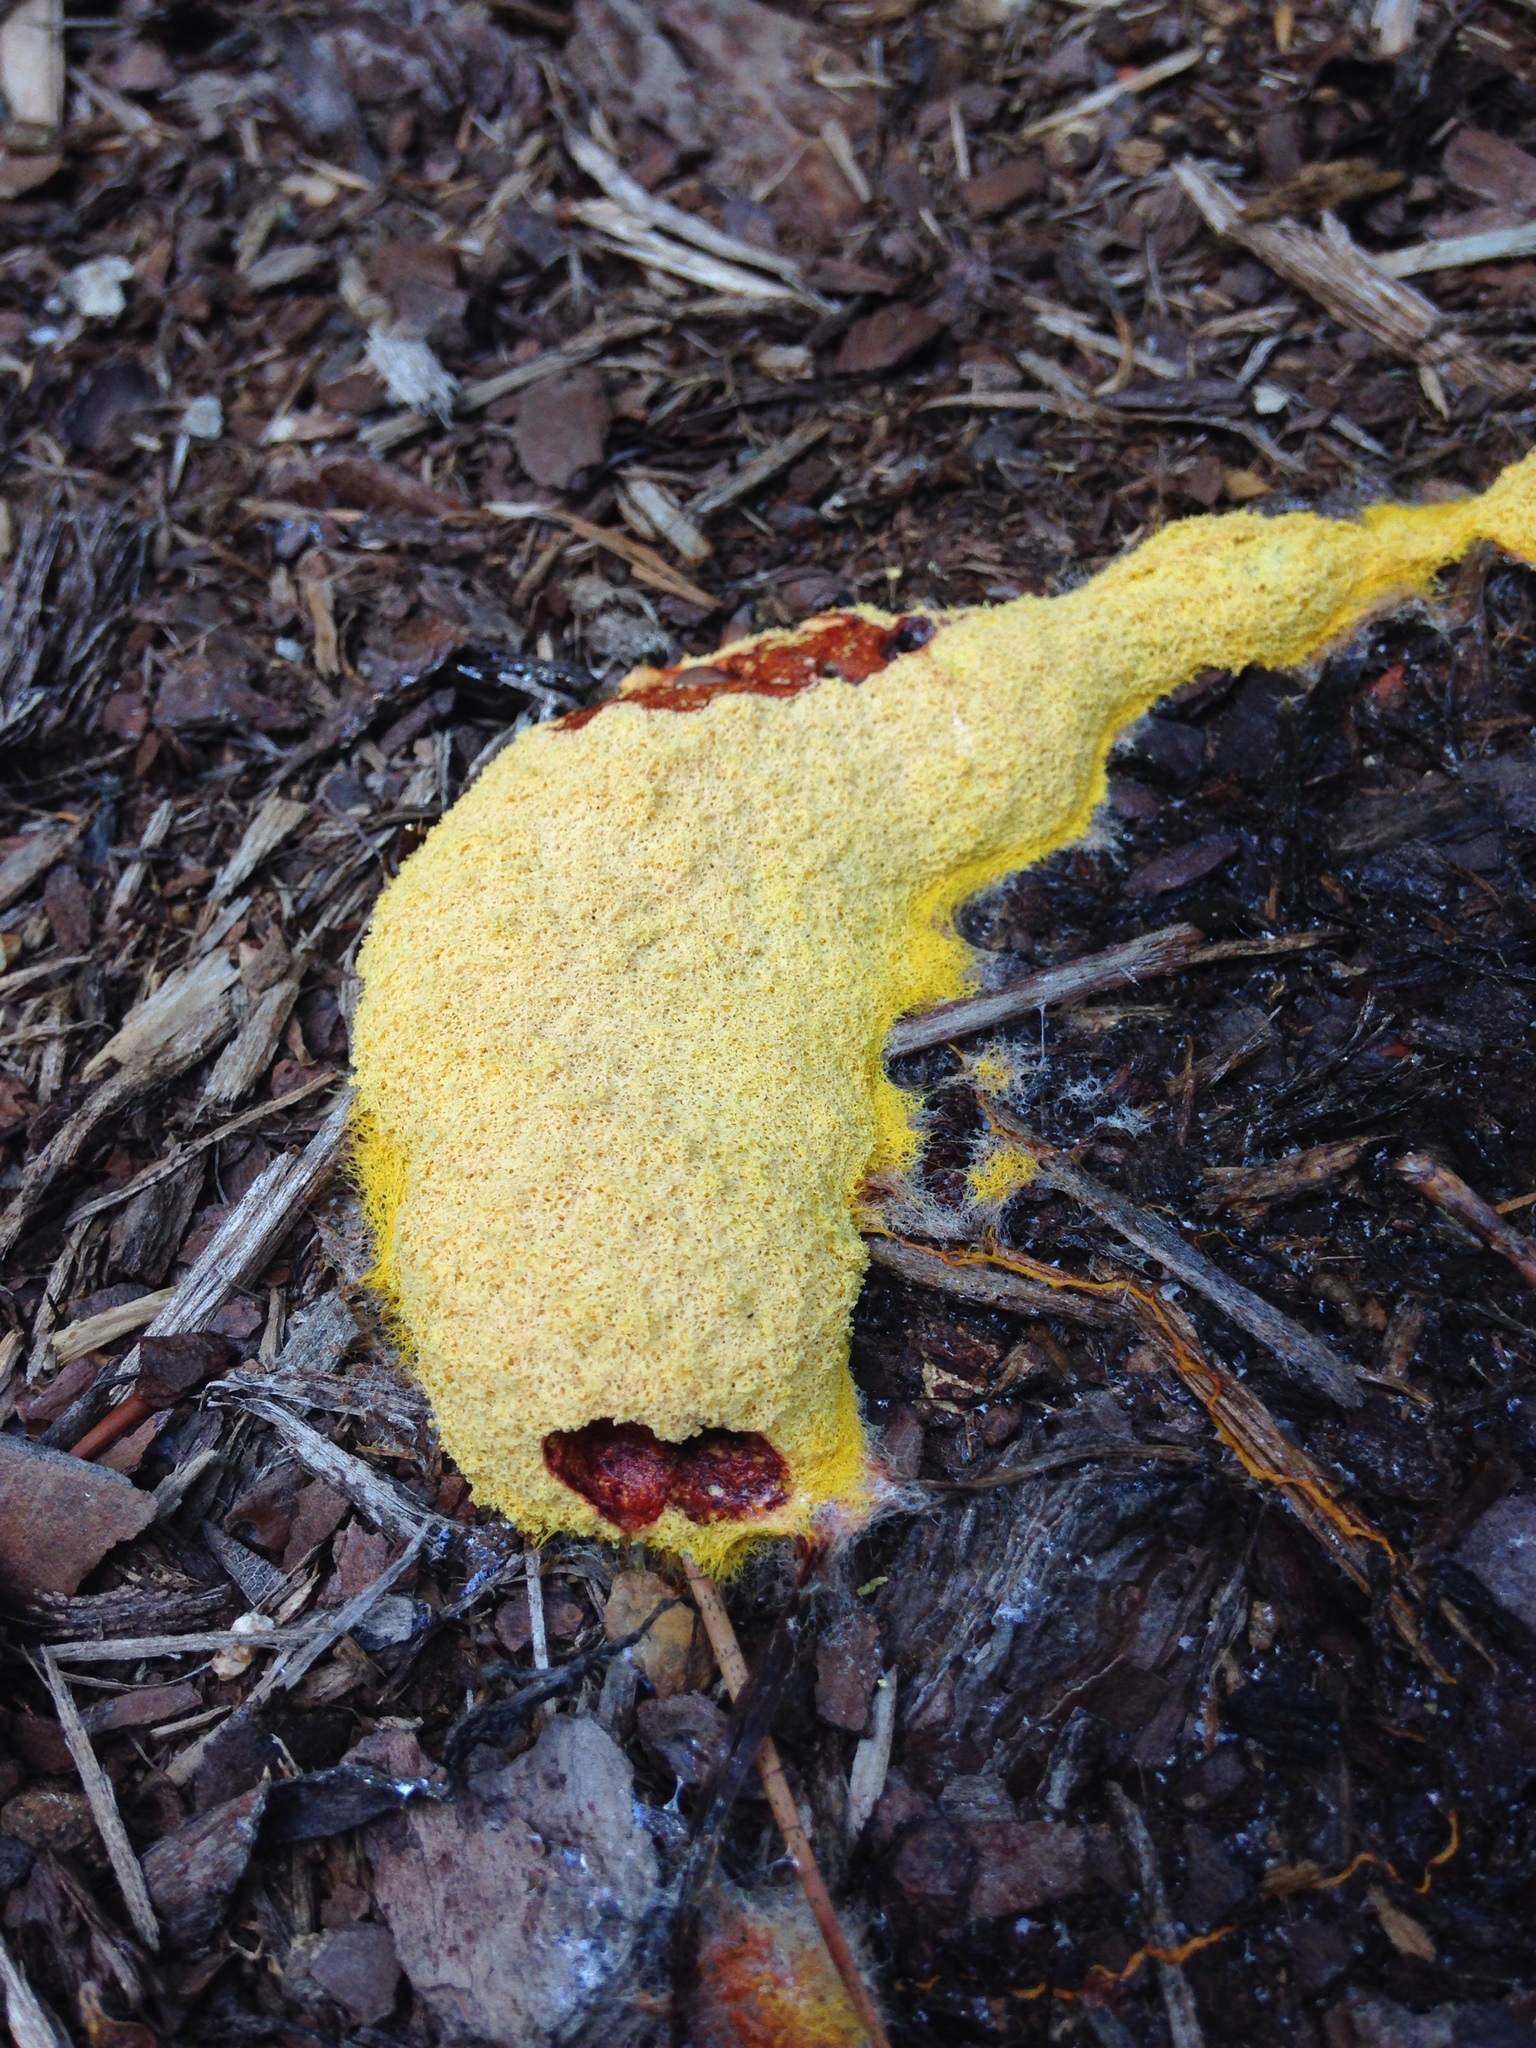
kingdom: Protozoa
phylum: Mycetozoa
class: Myxomycetes
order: Physarales
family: Physaraceae
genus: Fuligo
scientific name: Fuligo septica
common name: Dog vomit slime mold
